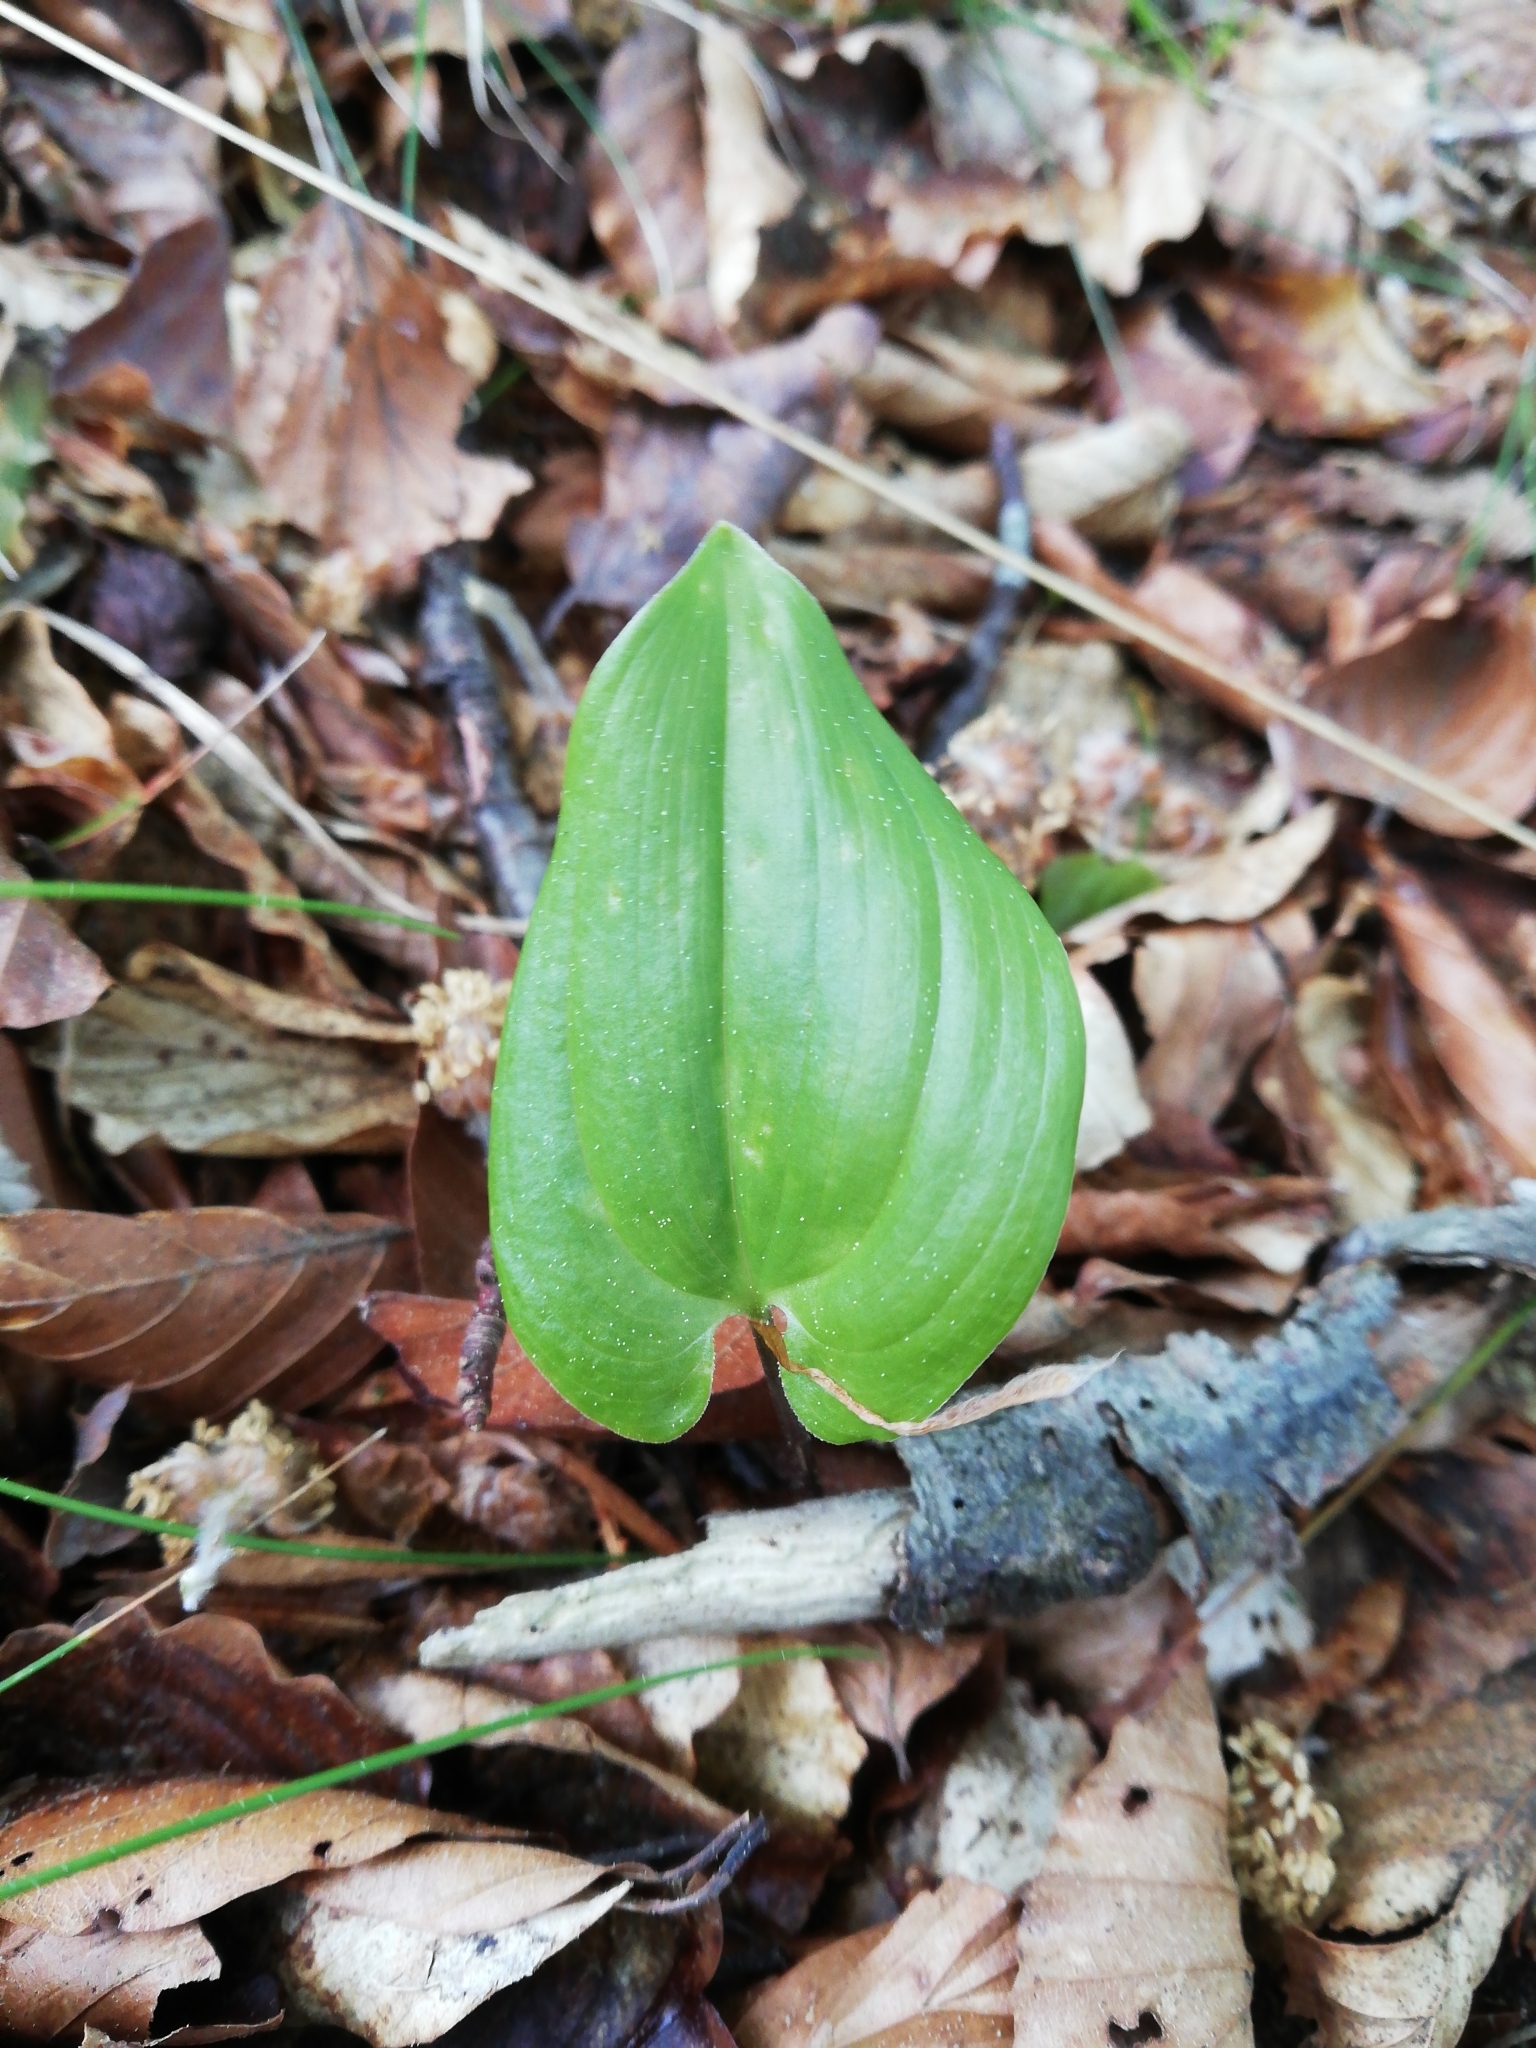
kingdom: Plantae
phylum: Tracheophyta
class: Liliopsida
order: Asparagales
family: Asparagaceae
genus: Maianthemum
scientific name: Maianthemum bifolium
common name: May lily
